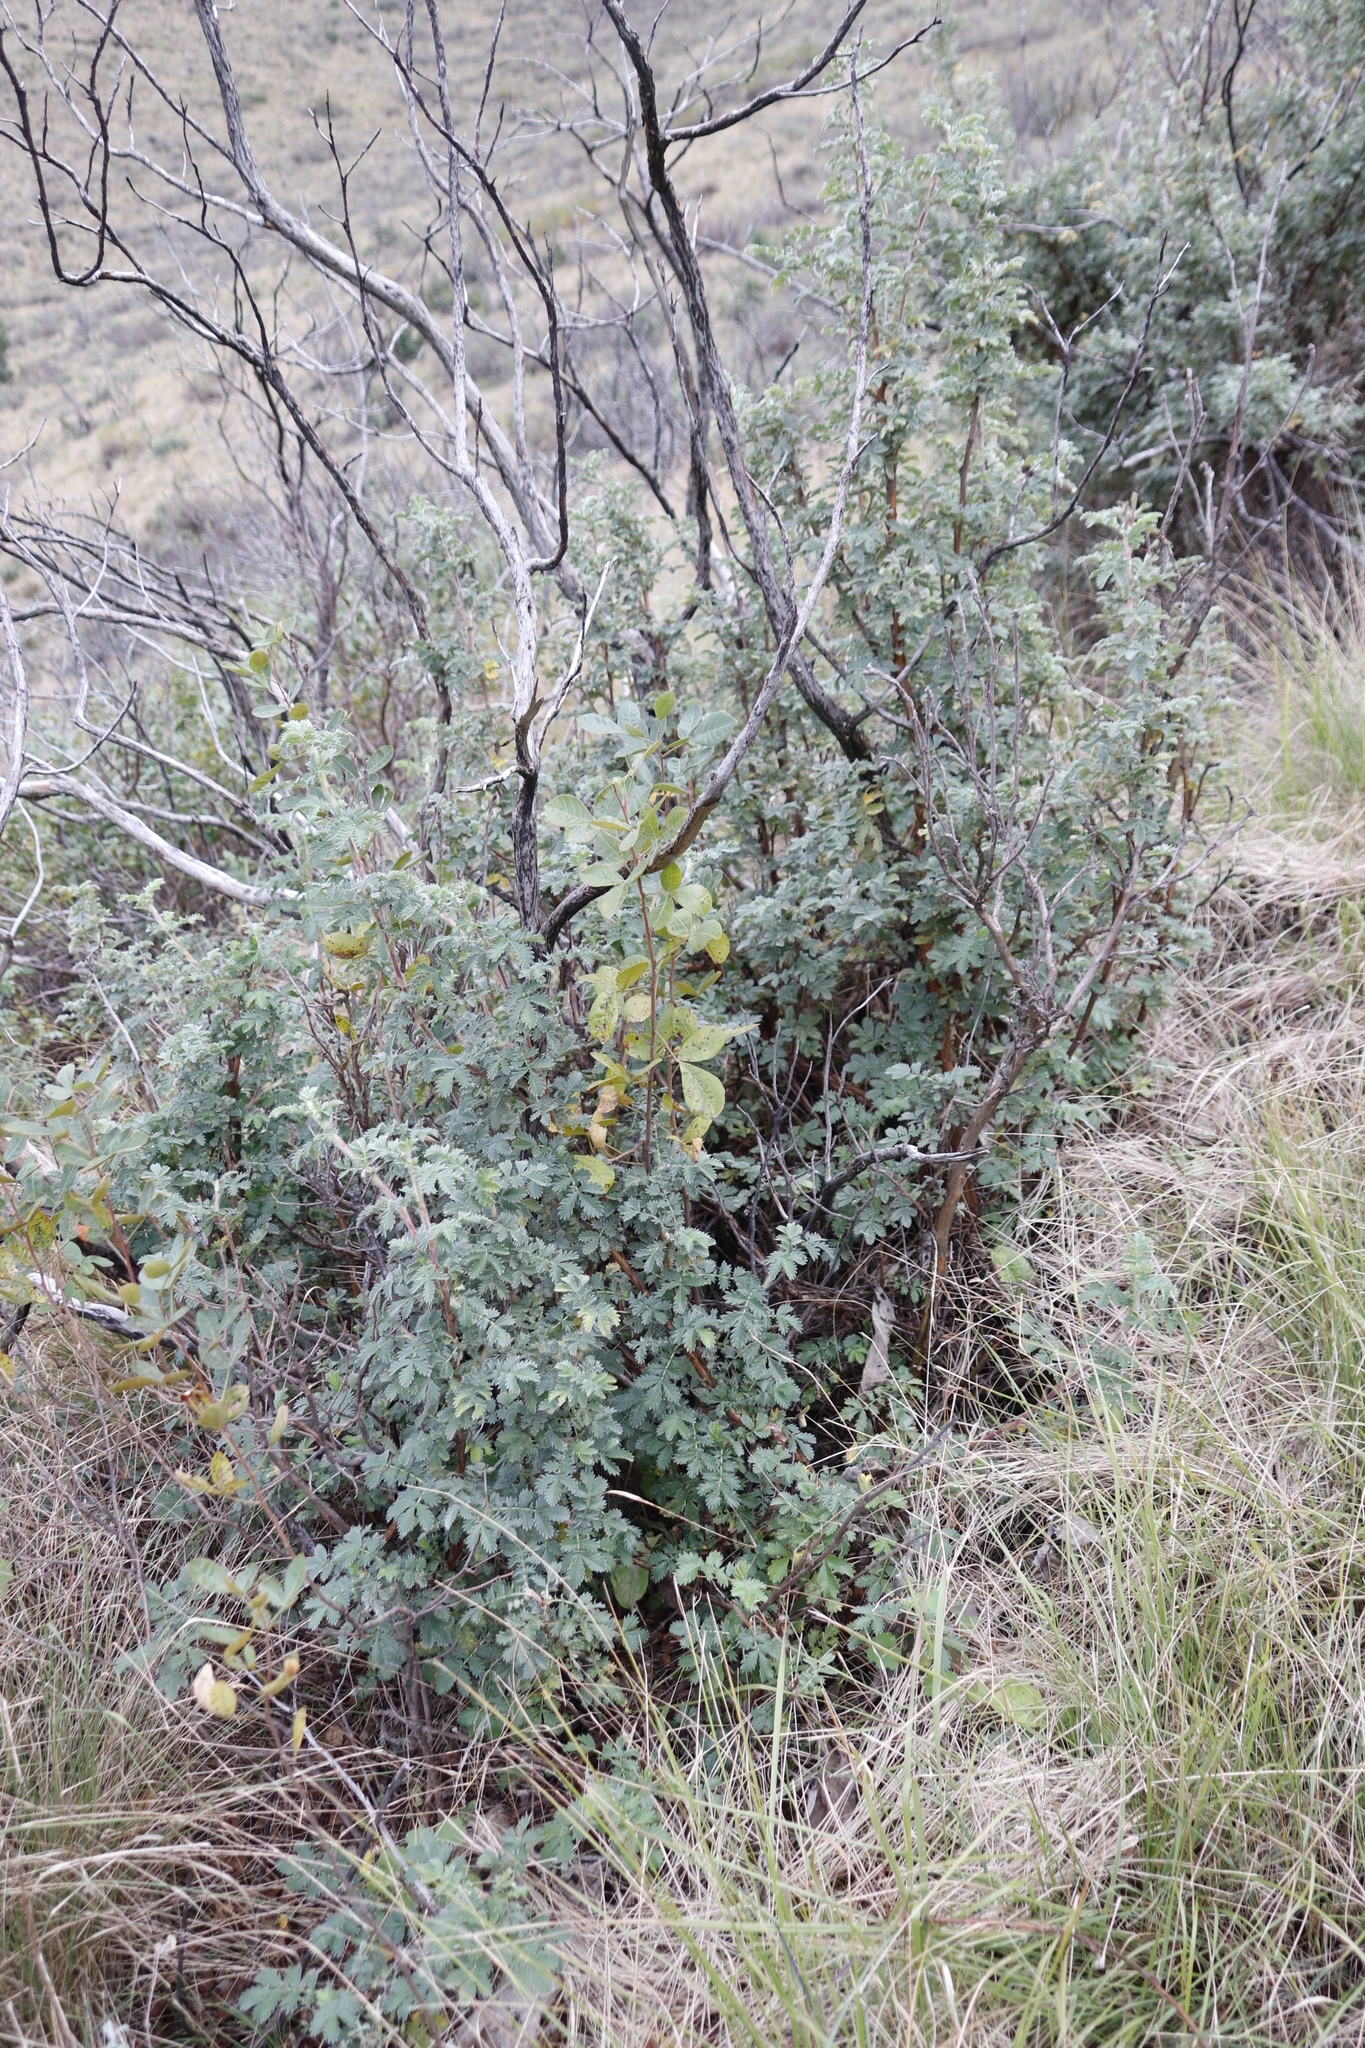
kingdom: Plantae
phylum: Tracheophyta
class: Magnoliopsida
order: Rosales
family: Rosaceae
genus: Leucosidea
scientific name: Leucosidea sericea
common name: Oldwood
